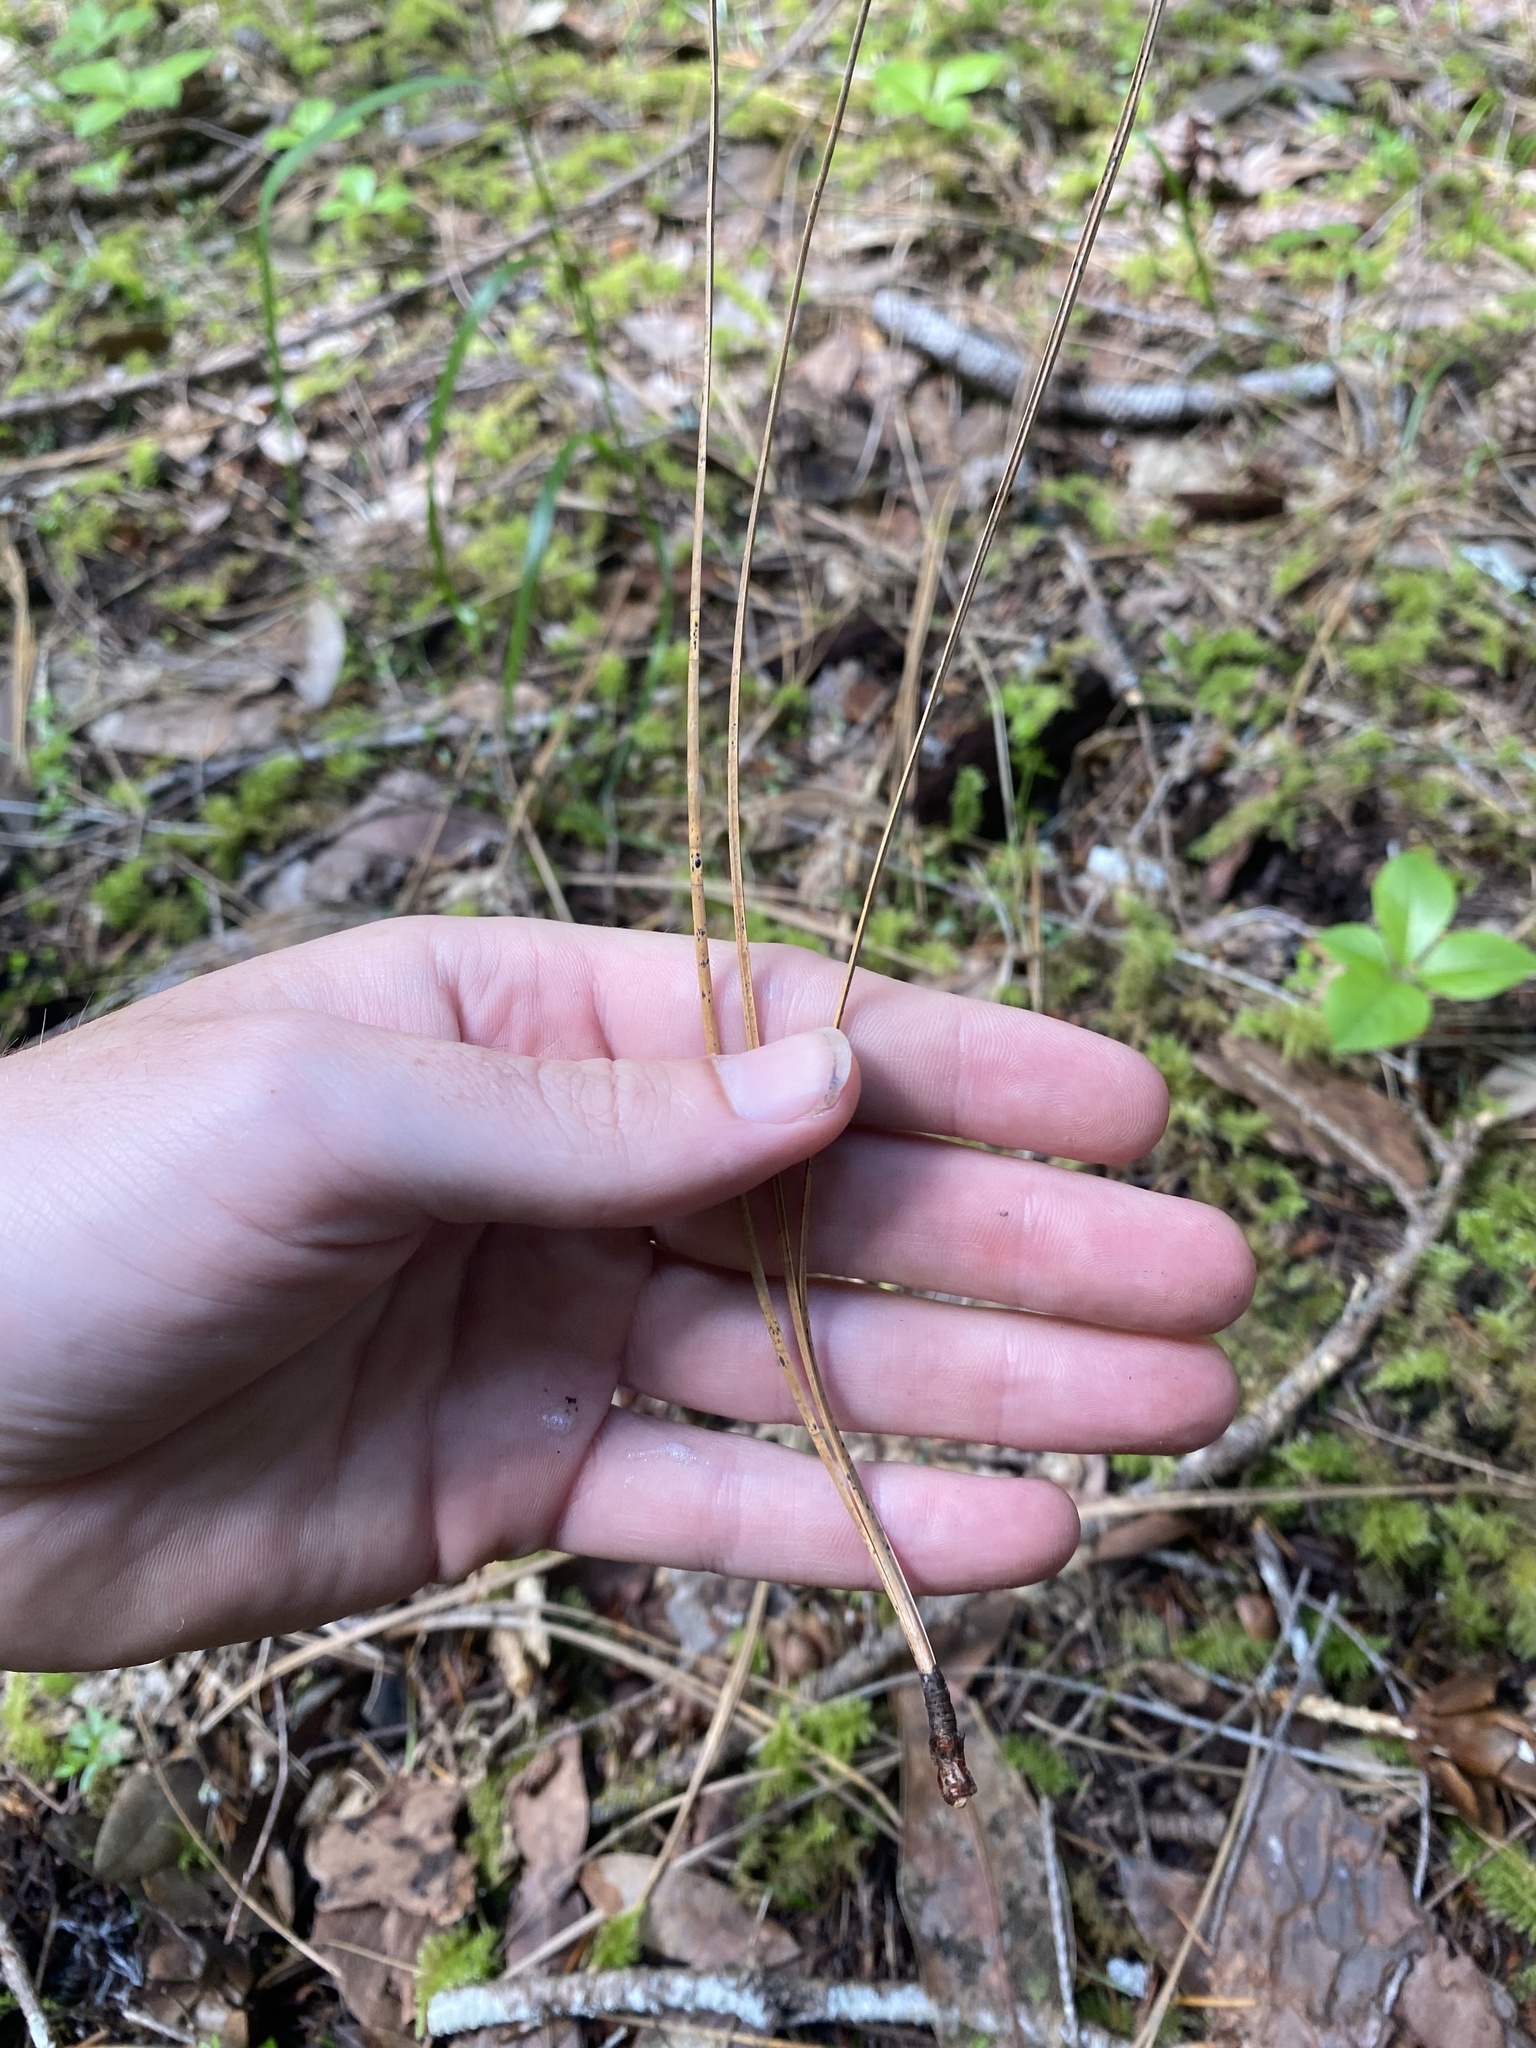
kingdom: Plantae
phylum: Tracheophyta
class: Pinopsida
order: Pinales
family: Pinaceae
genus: Pinus
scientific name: Pinus ponderosa
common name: Western yellow-pine
